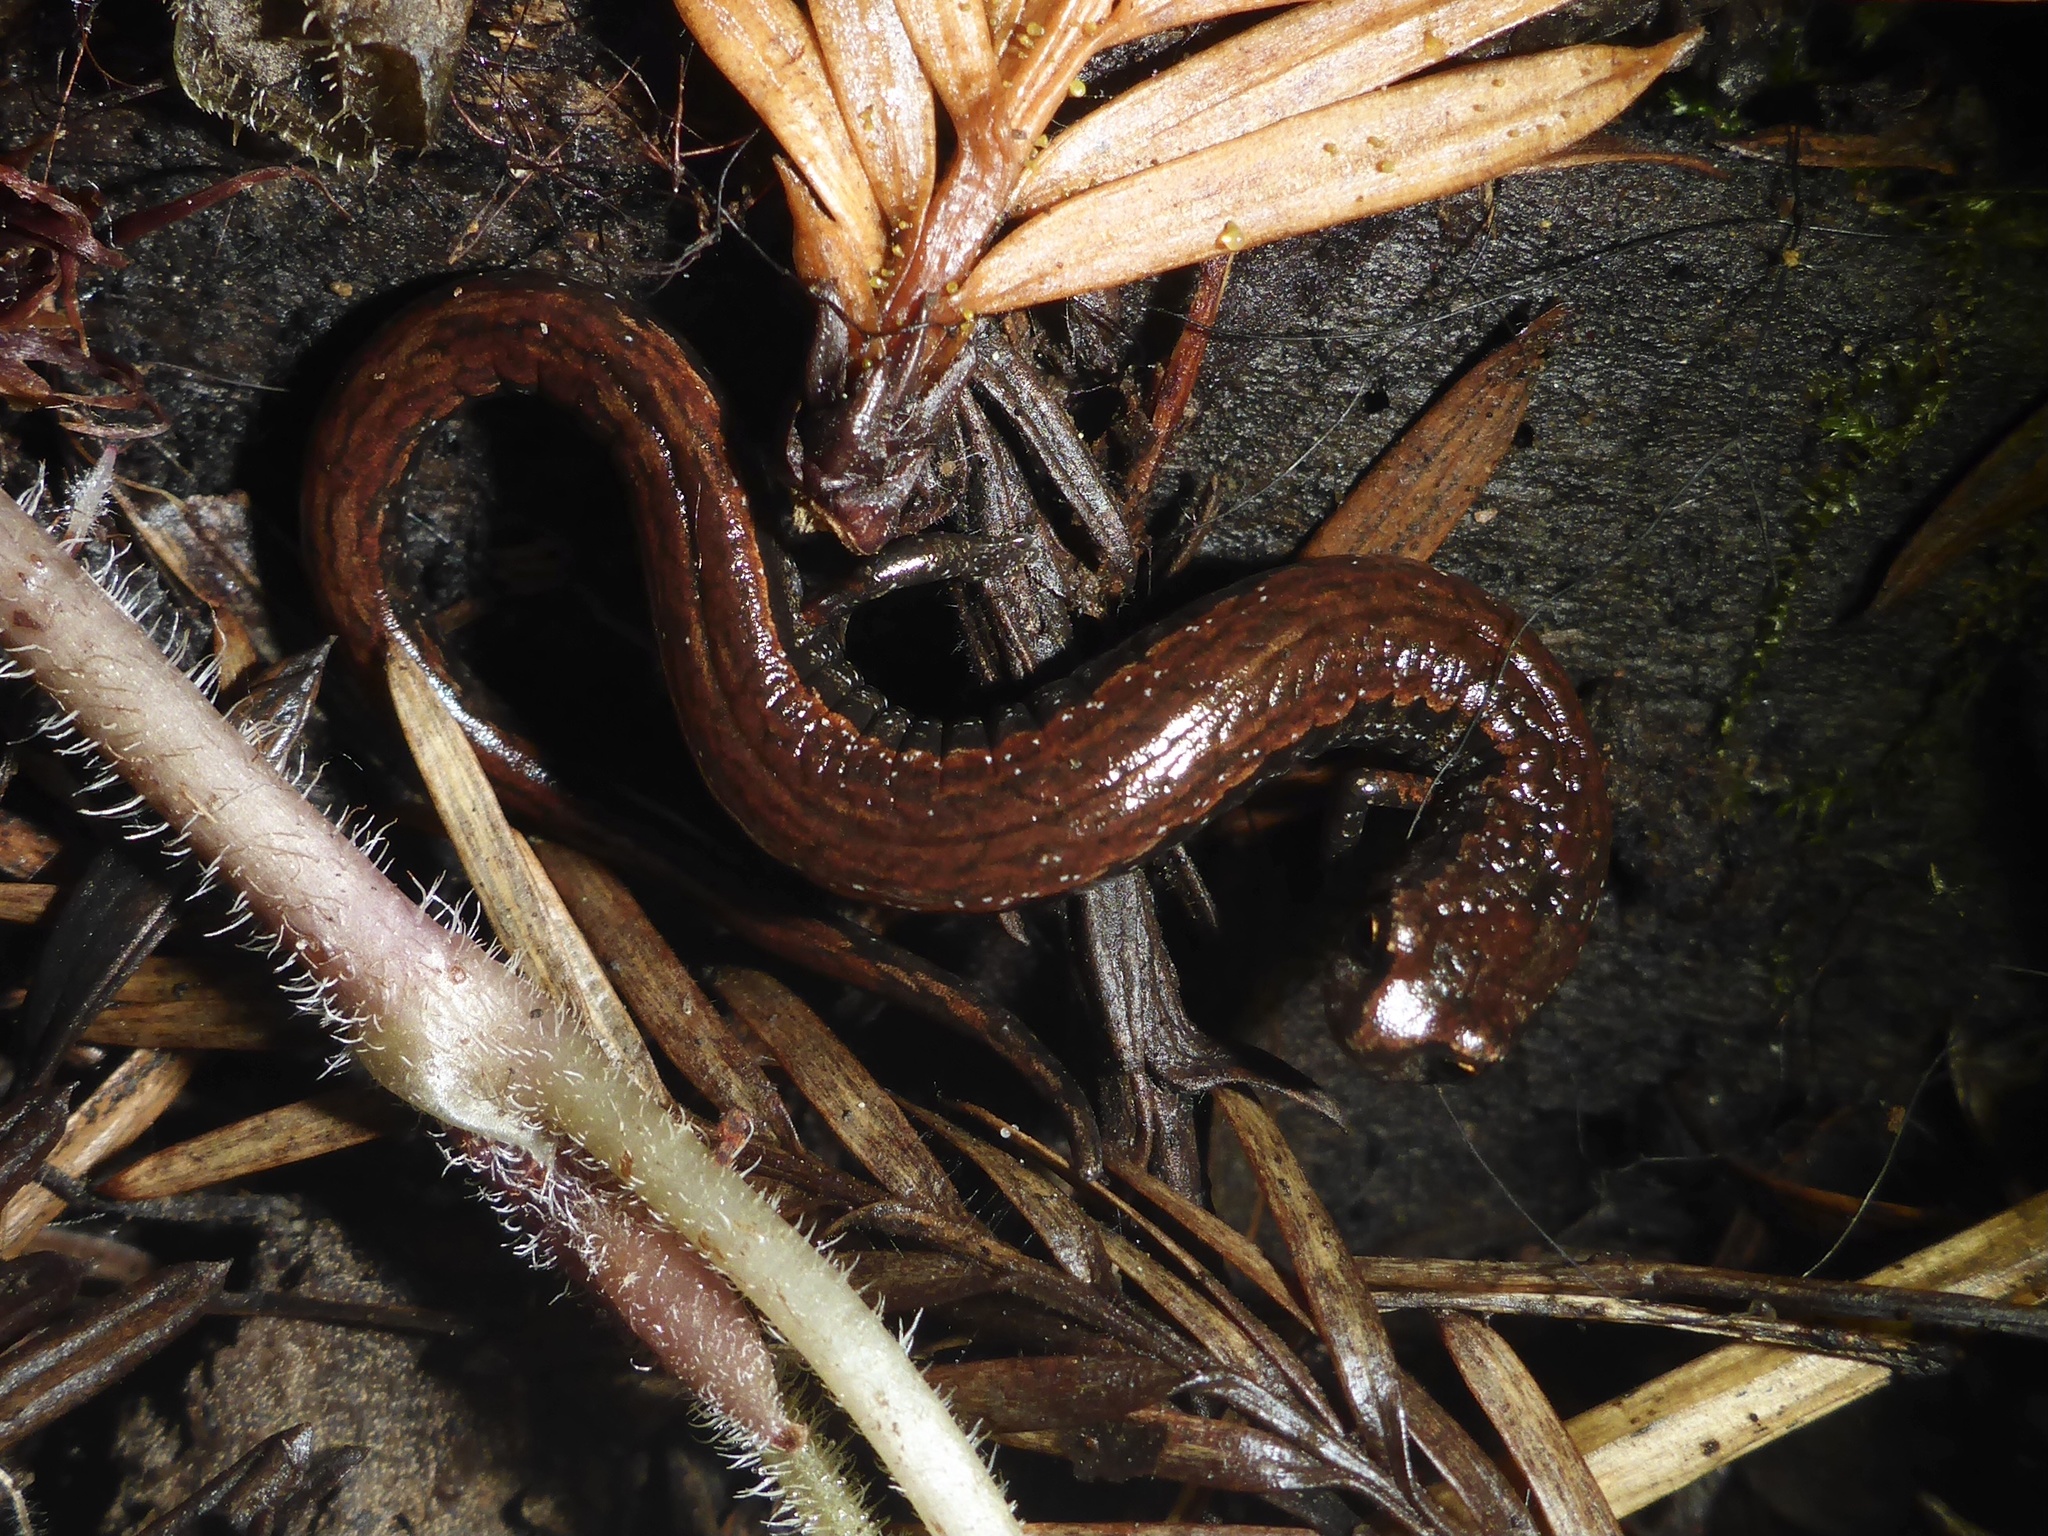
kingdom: Animalia
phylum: Chordata
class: Amphibia
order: Caudata
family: Plethodontidae
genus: Batrachoseps
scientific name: Batrachoseps attenuatus
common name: California slender salamander
